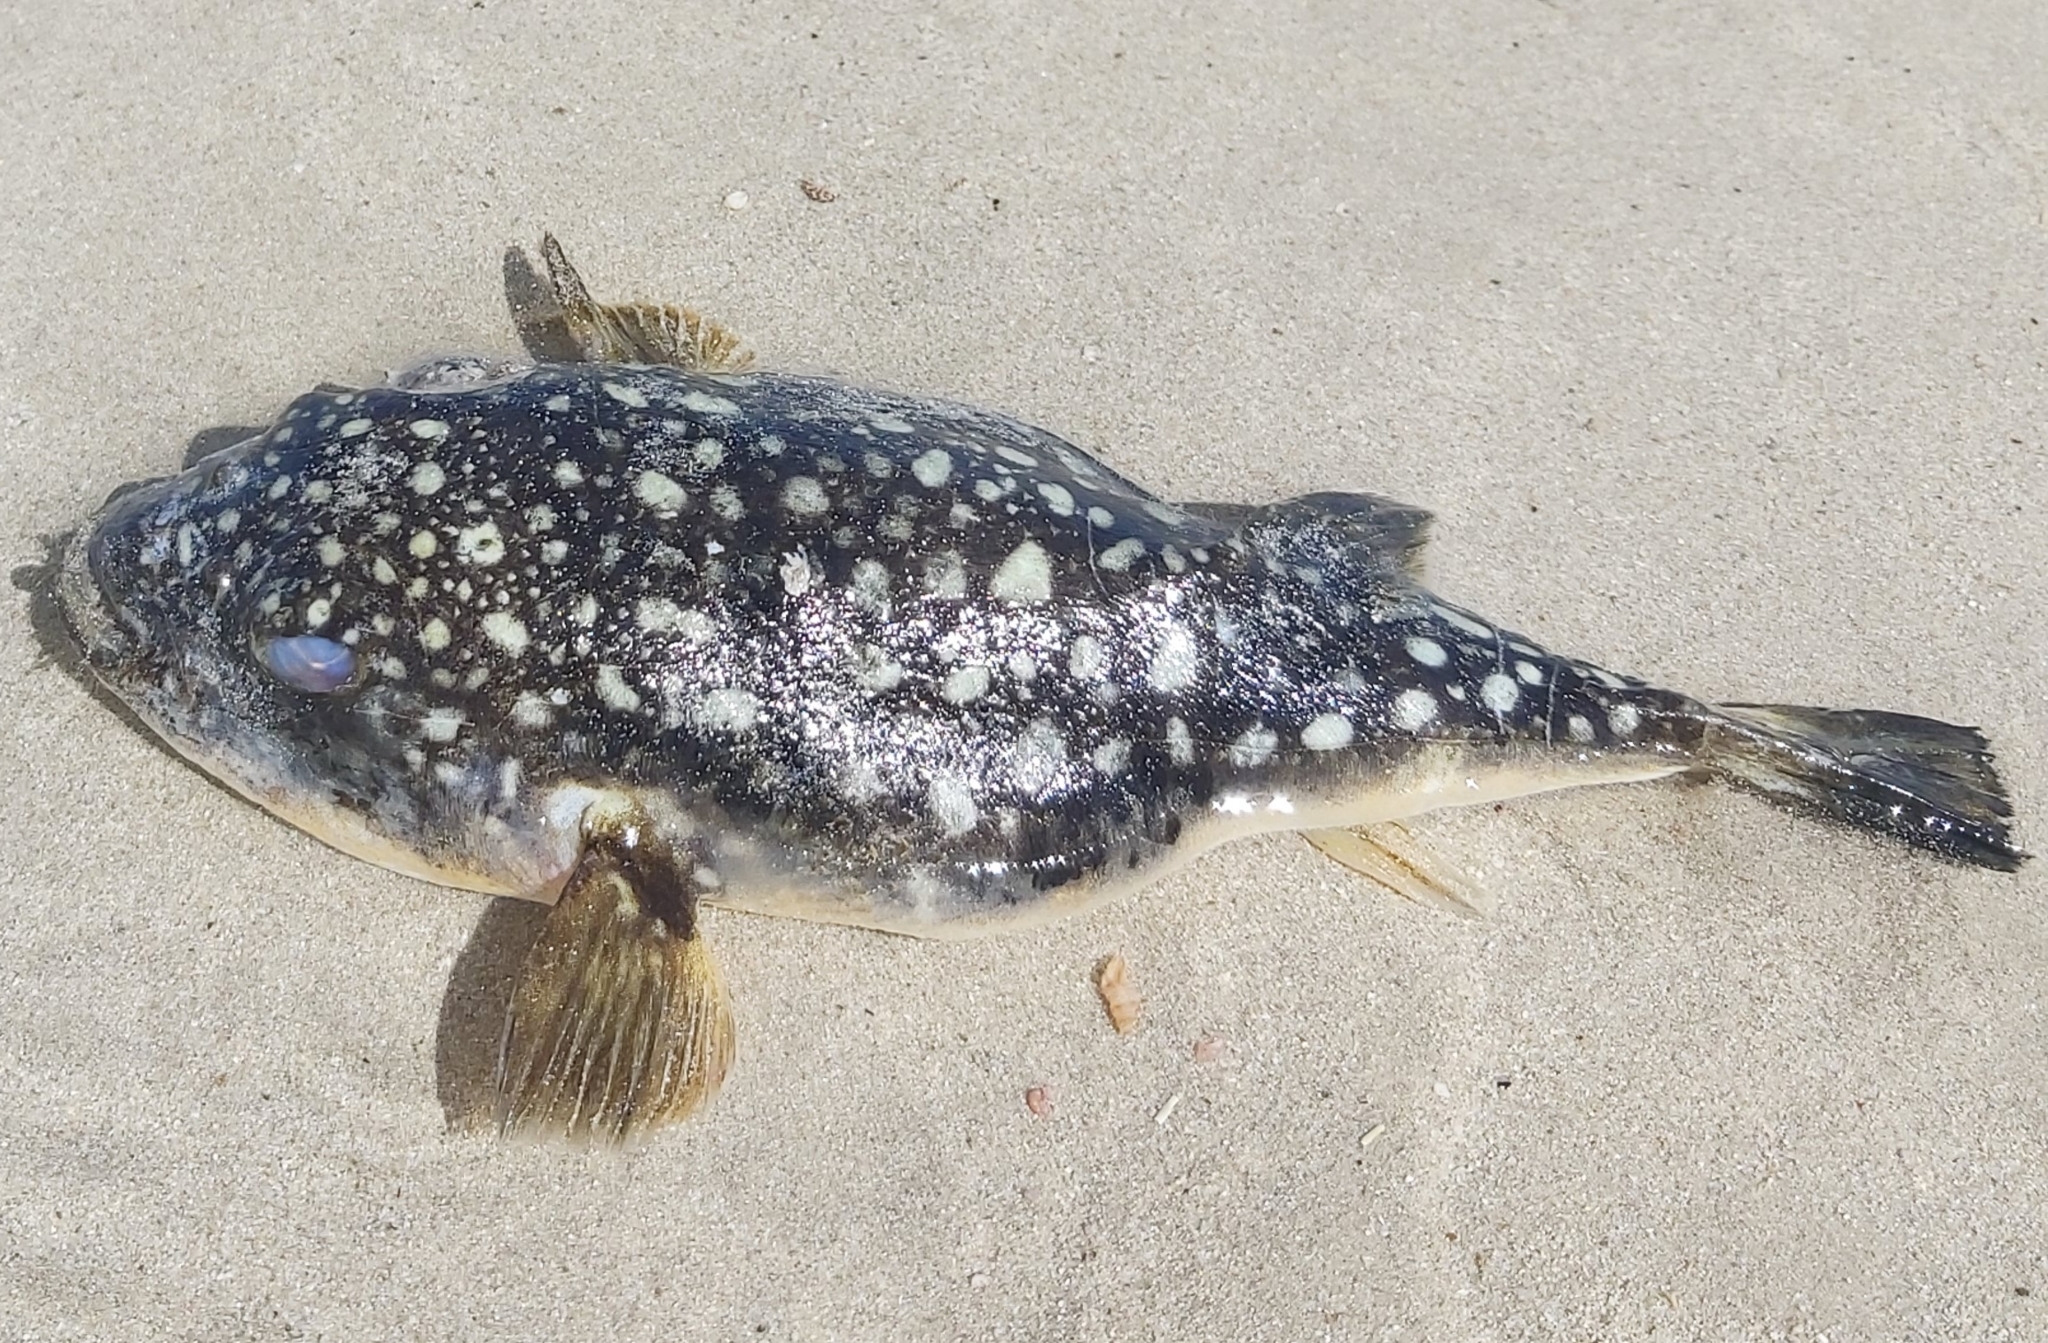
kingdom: Animalia
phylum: Chordata
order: Tetraodontiformes
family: Tetraodontidae
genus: Amblyrhynchote
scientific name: Amblyrhynchote honckenii
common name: Evileye blaasop
